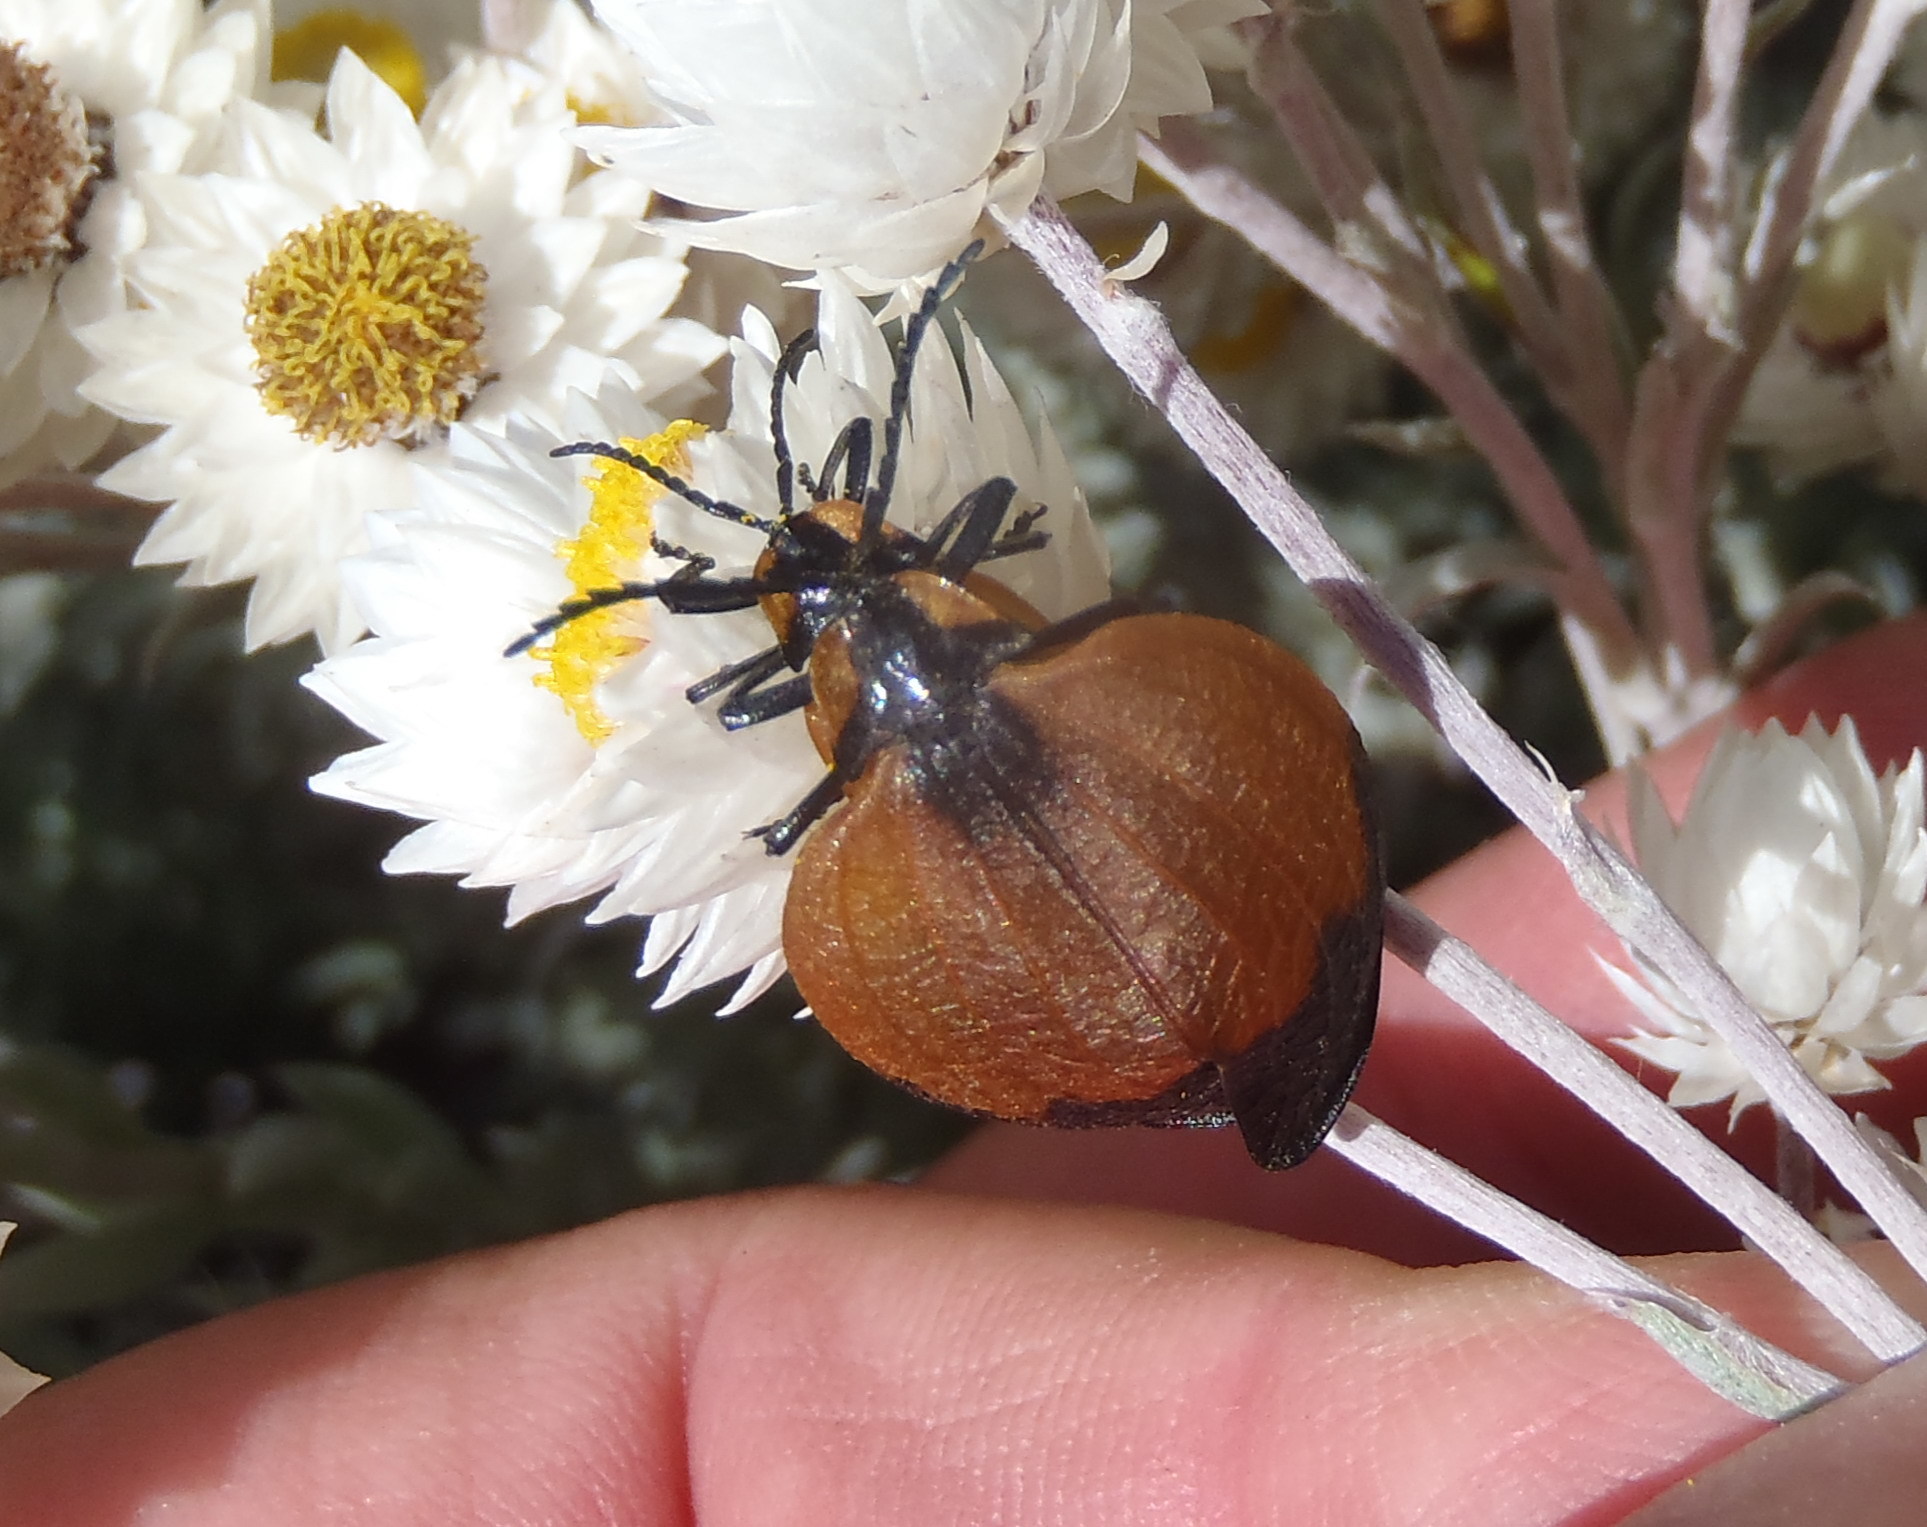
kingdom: Animalia
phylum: Arthropoda
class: Insecta
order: Coleoptera
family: Lycidae
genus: Lycus
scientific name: Lycus
